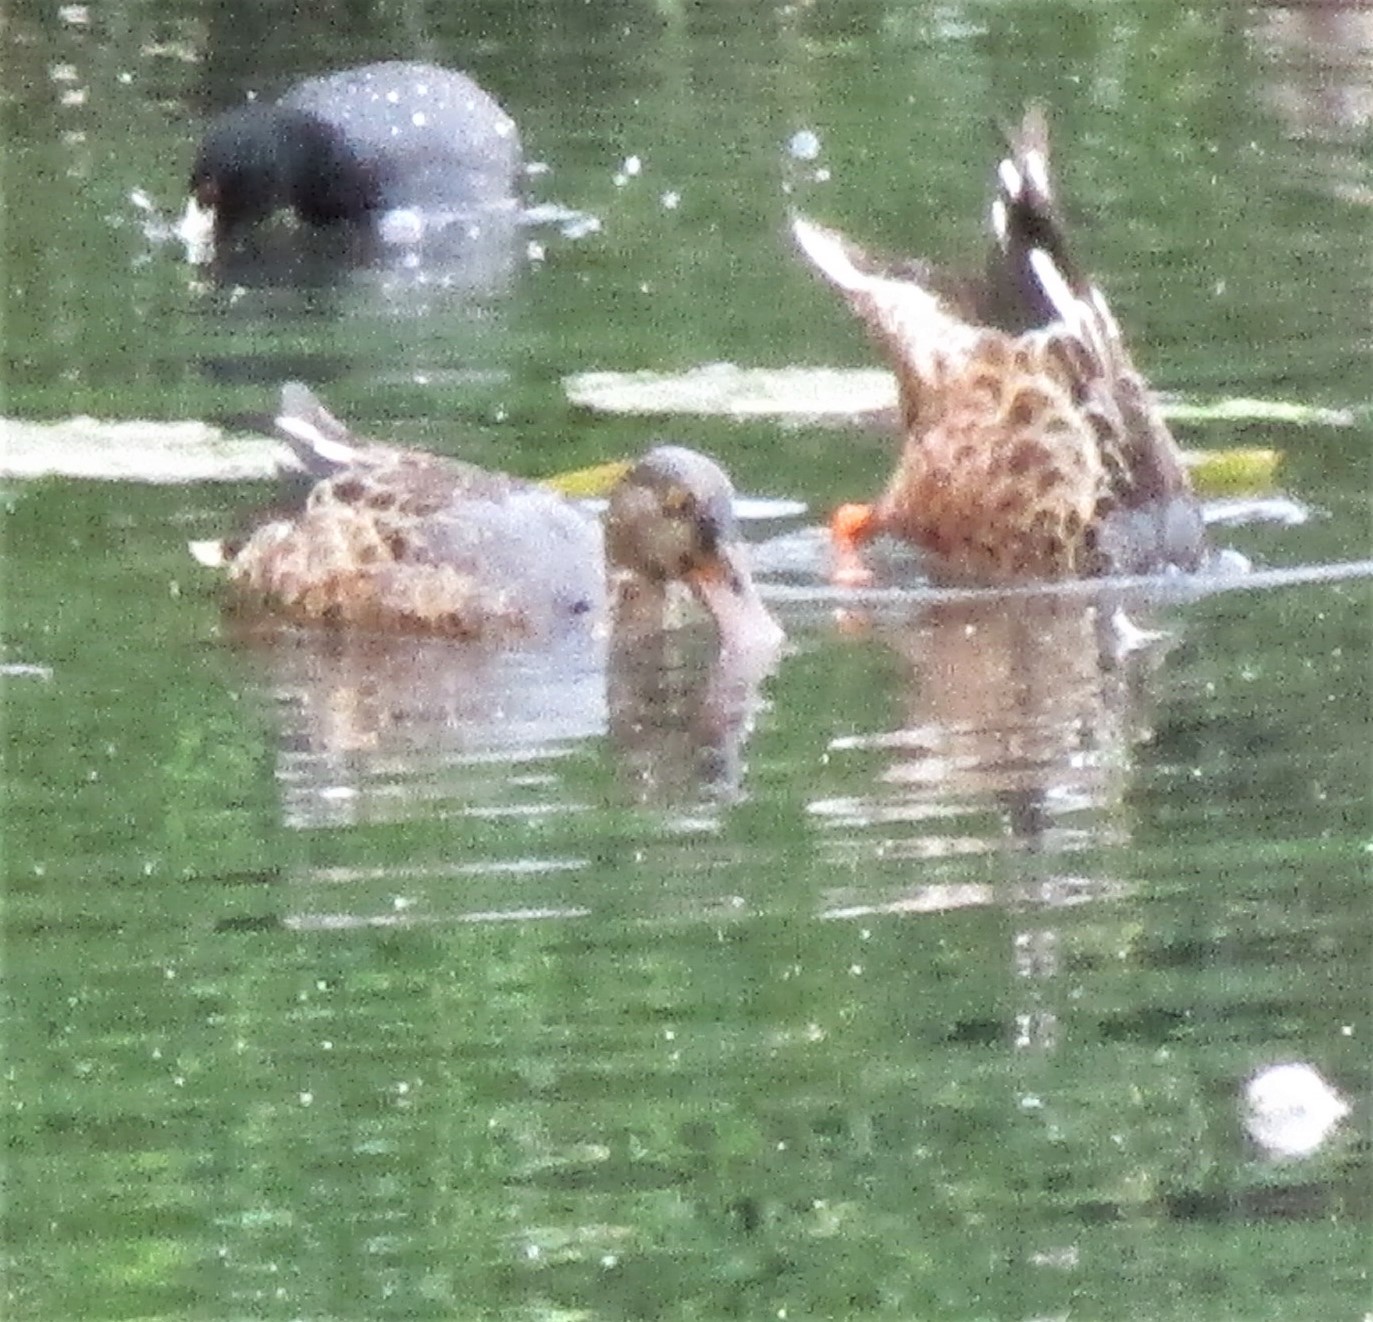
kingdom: Animalia
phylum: Chordata
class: Aves
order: Anseriformes
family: Anatidae
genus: Spatula
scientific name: Spatula clypeata
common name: Northern shoveler
